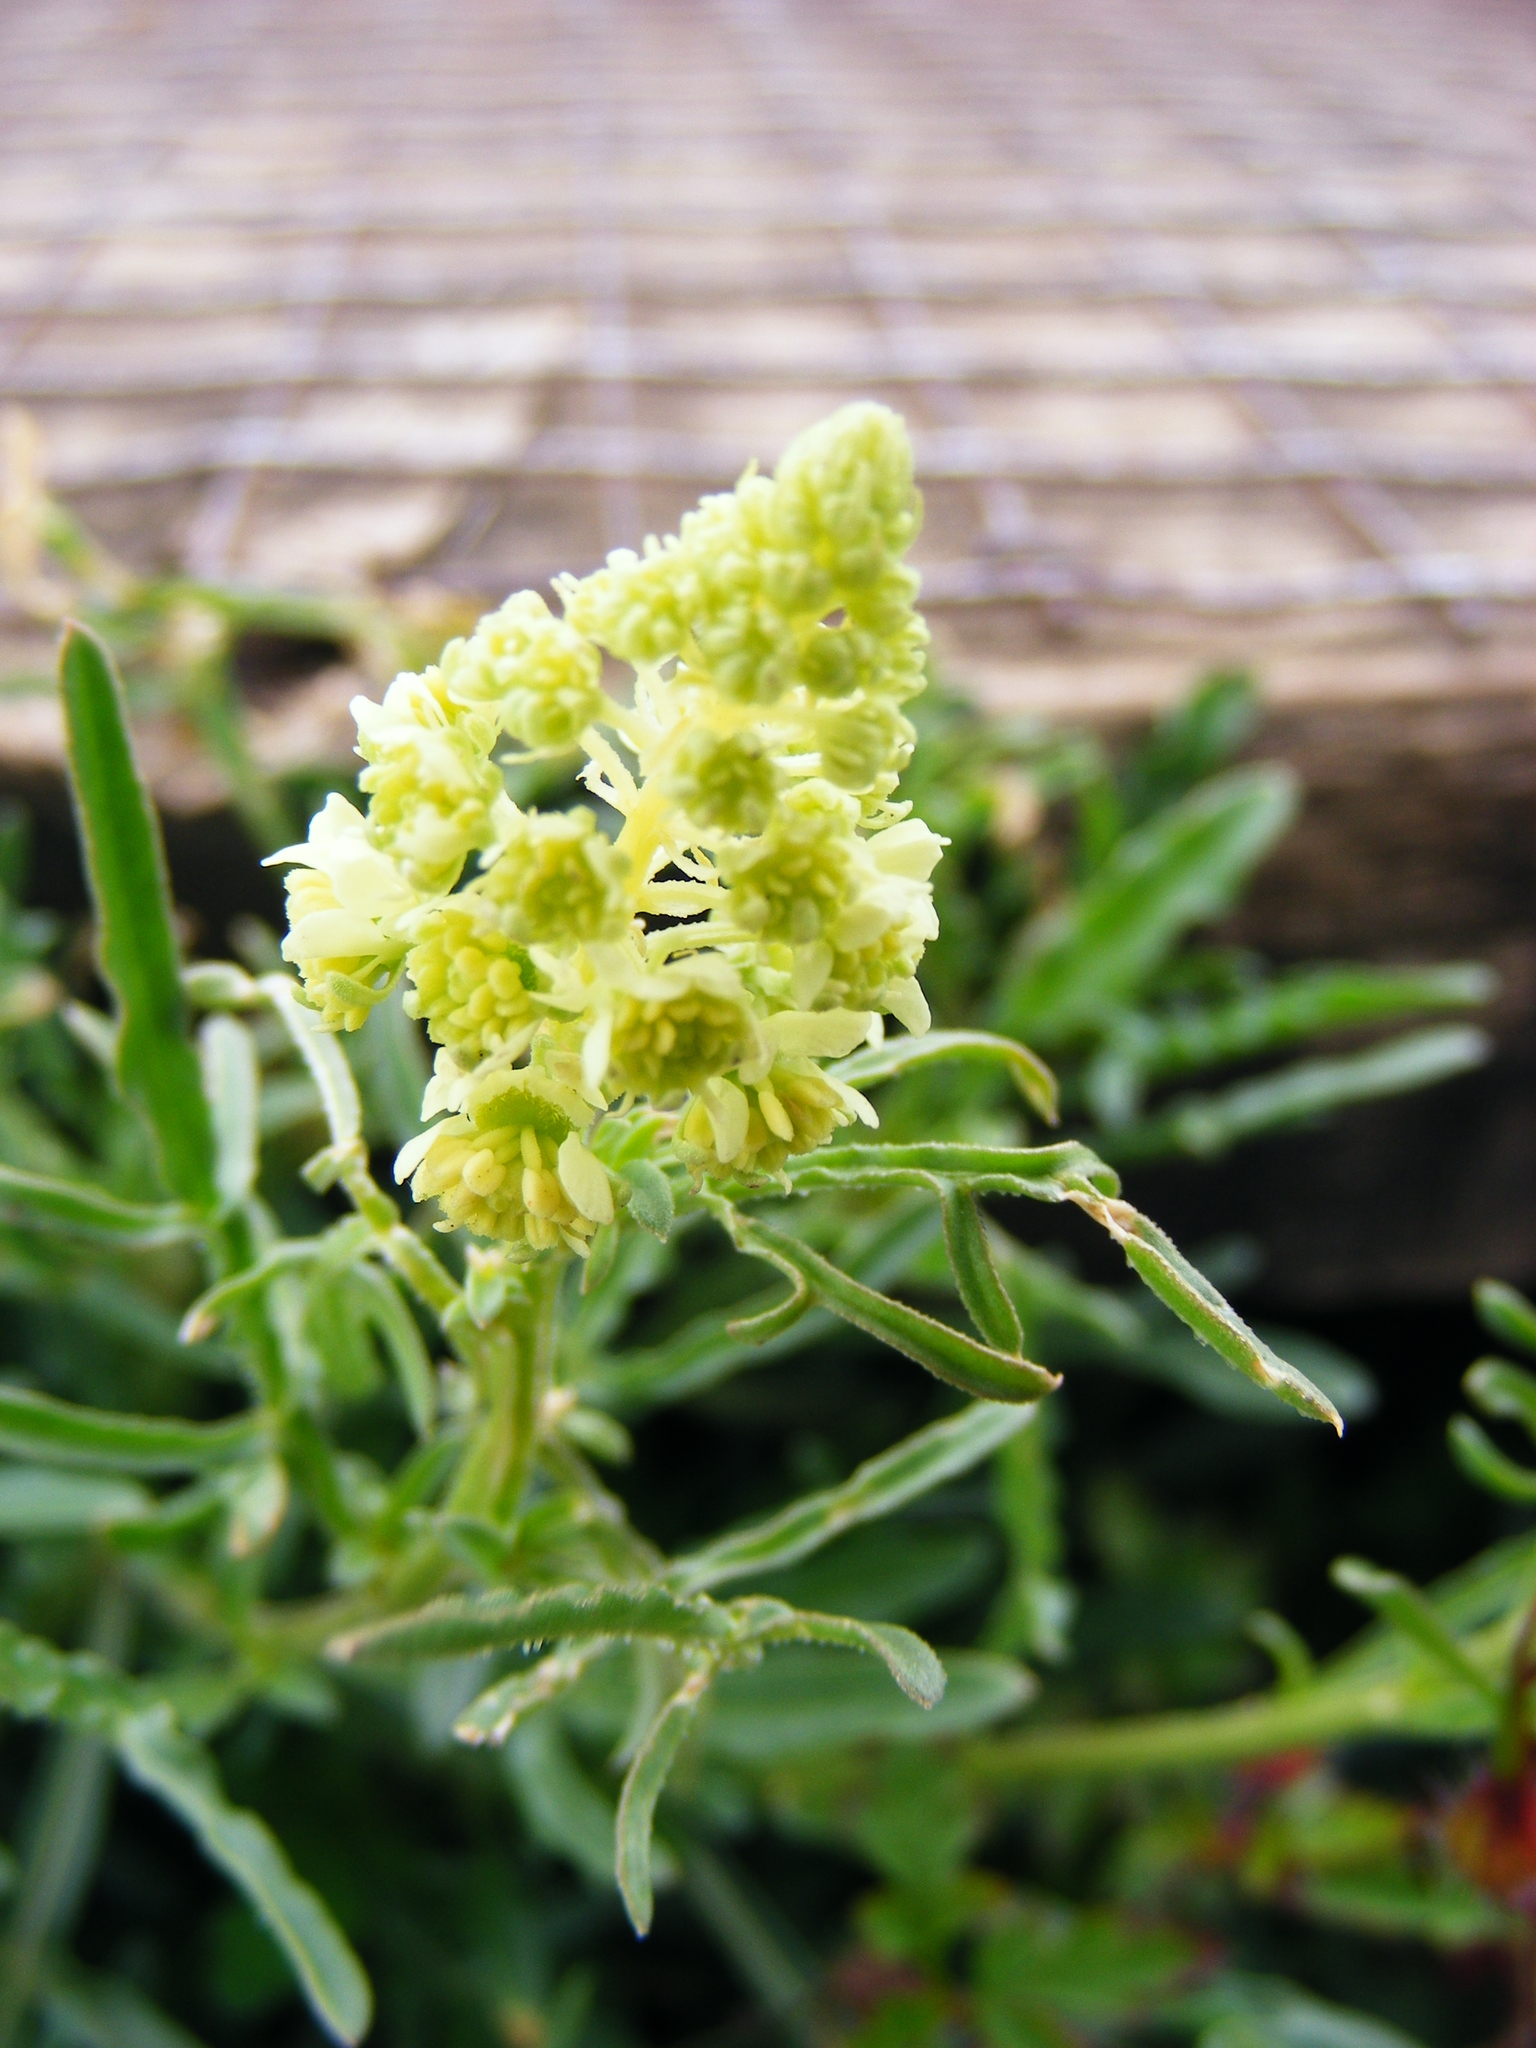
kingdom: Plantae
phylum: Tracheophyta
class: Magnoliopsida
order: Brassicales
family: Resedaceae
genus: Reseda
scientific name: Reseda lutea
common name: Wild mignonette
